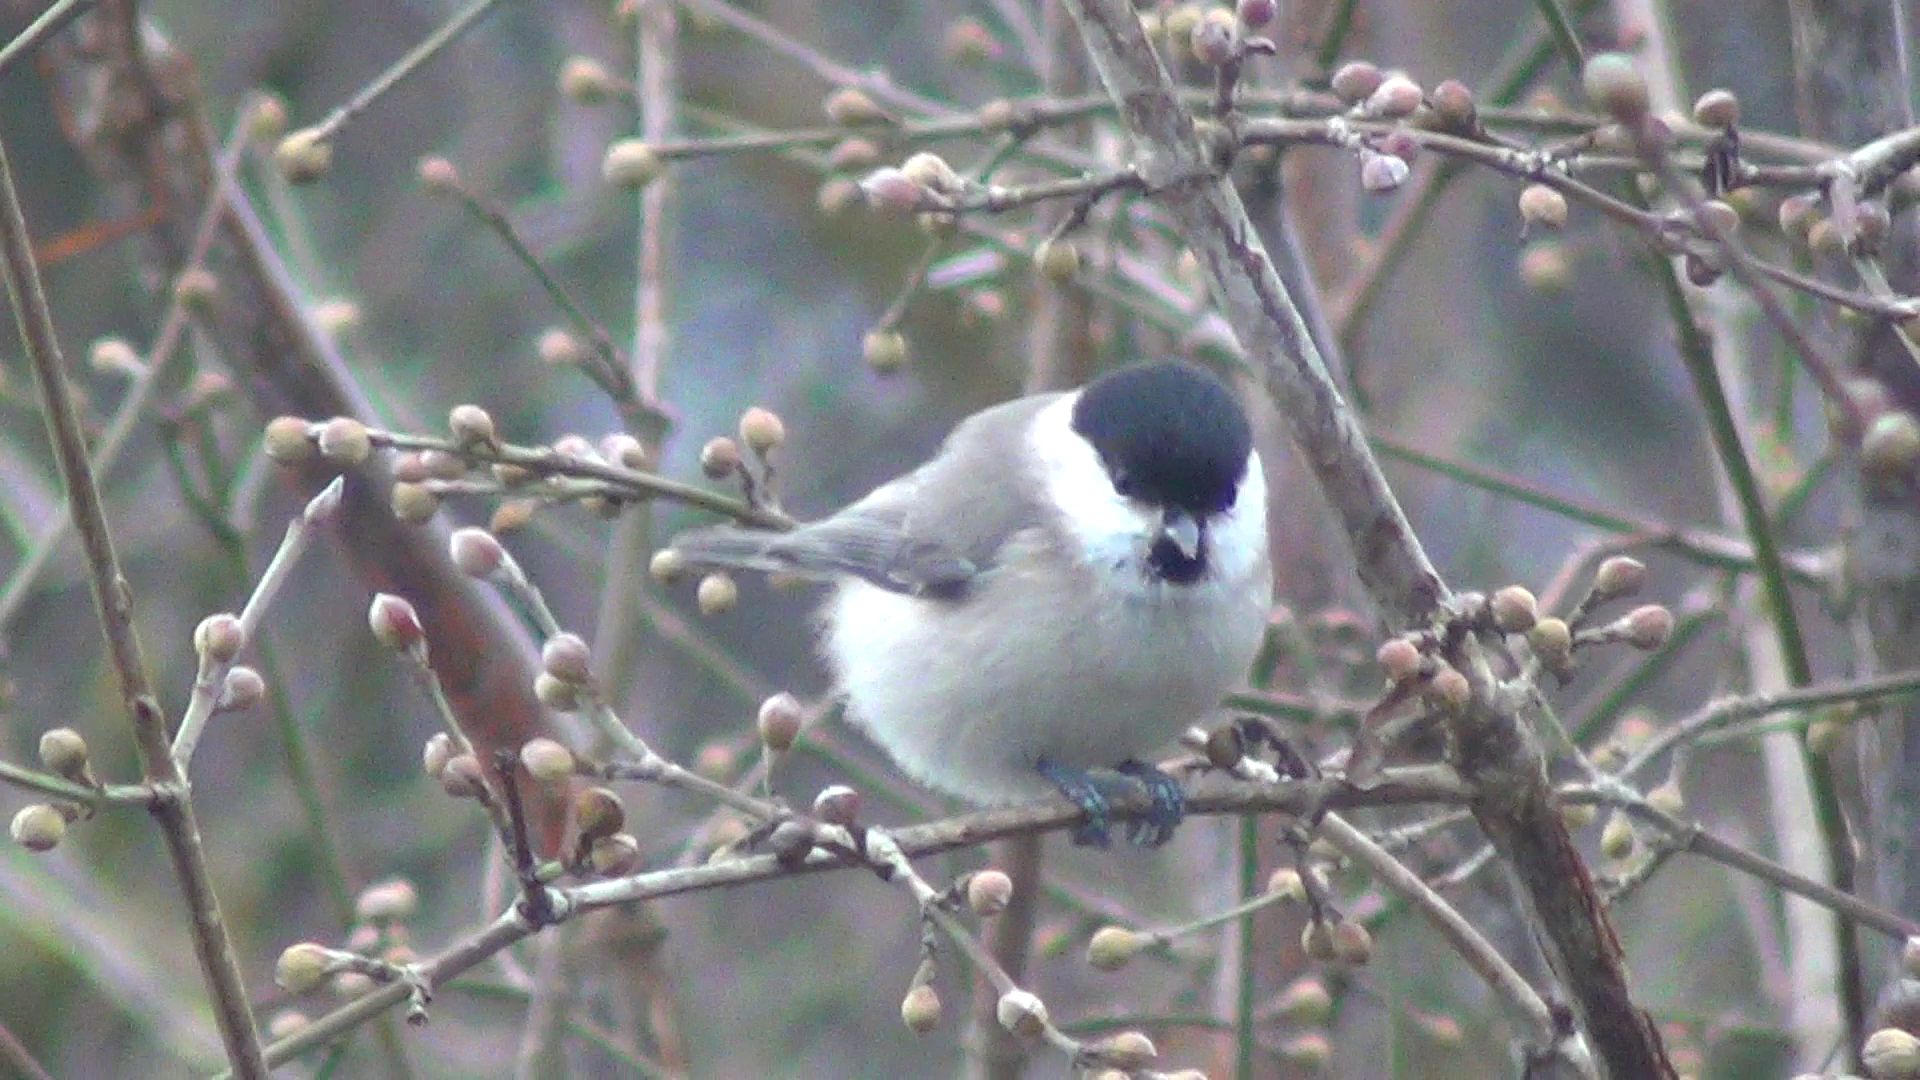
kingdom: Animalia
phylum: Chordata
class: Aves
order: Passeriformes
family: Paridae
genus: Poecile
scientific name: Poecile palustris
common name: Marsh tit
